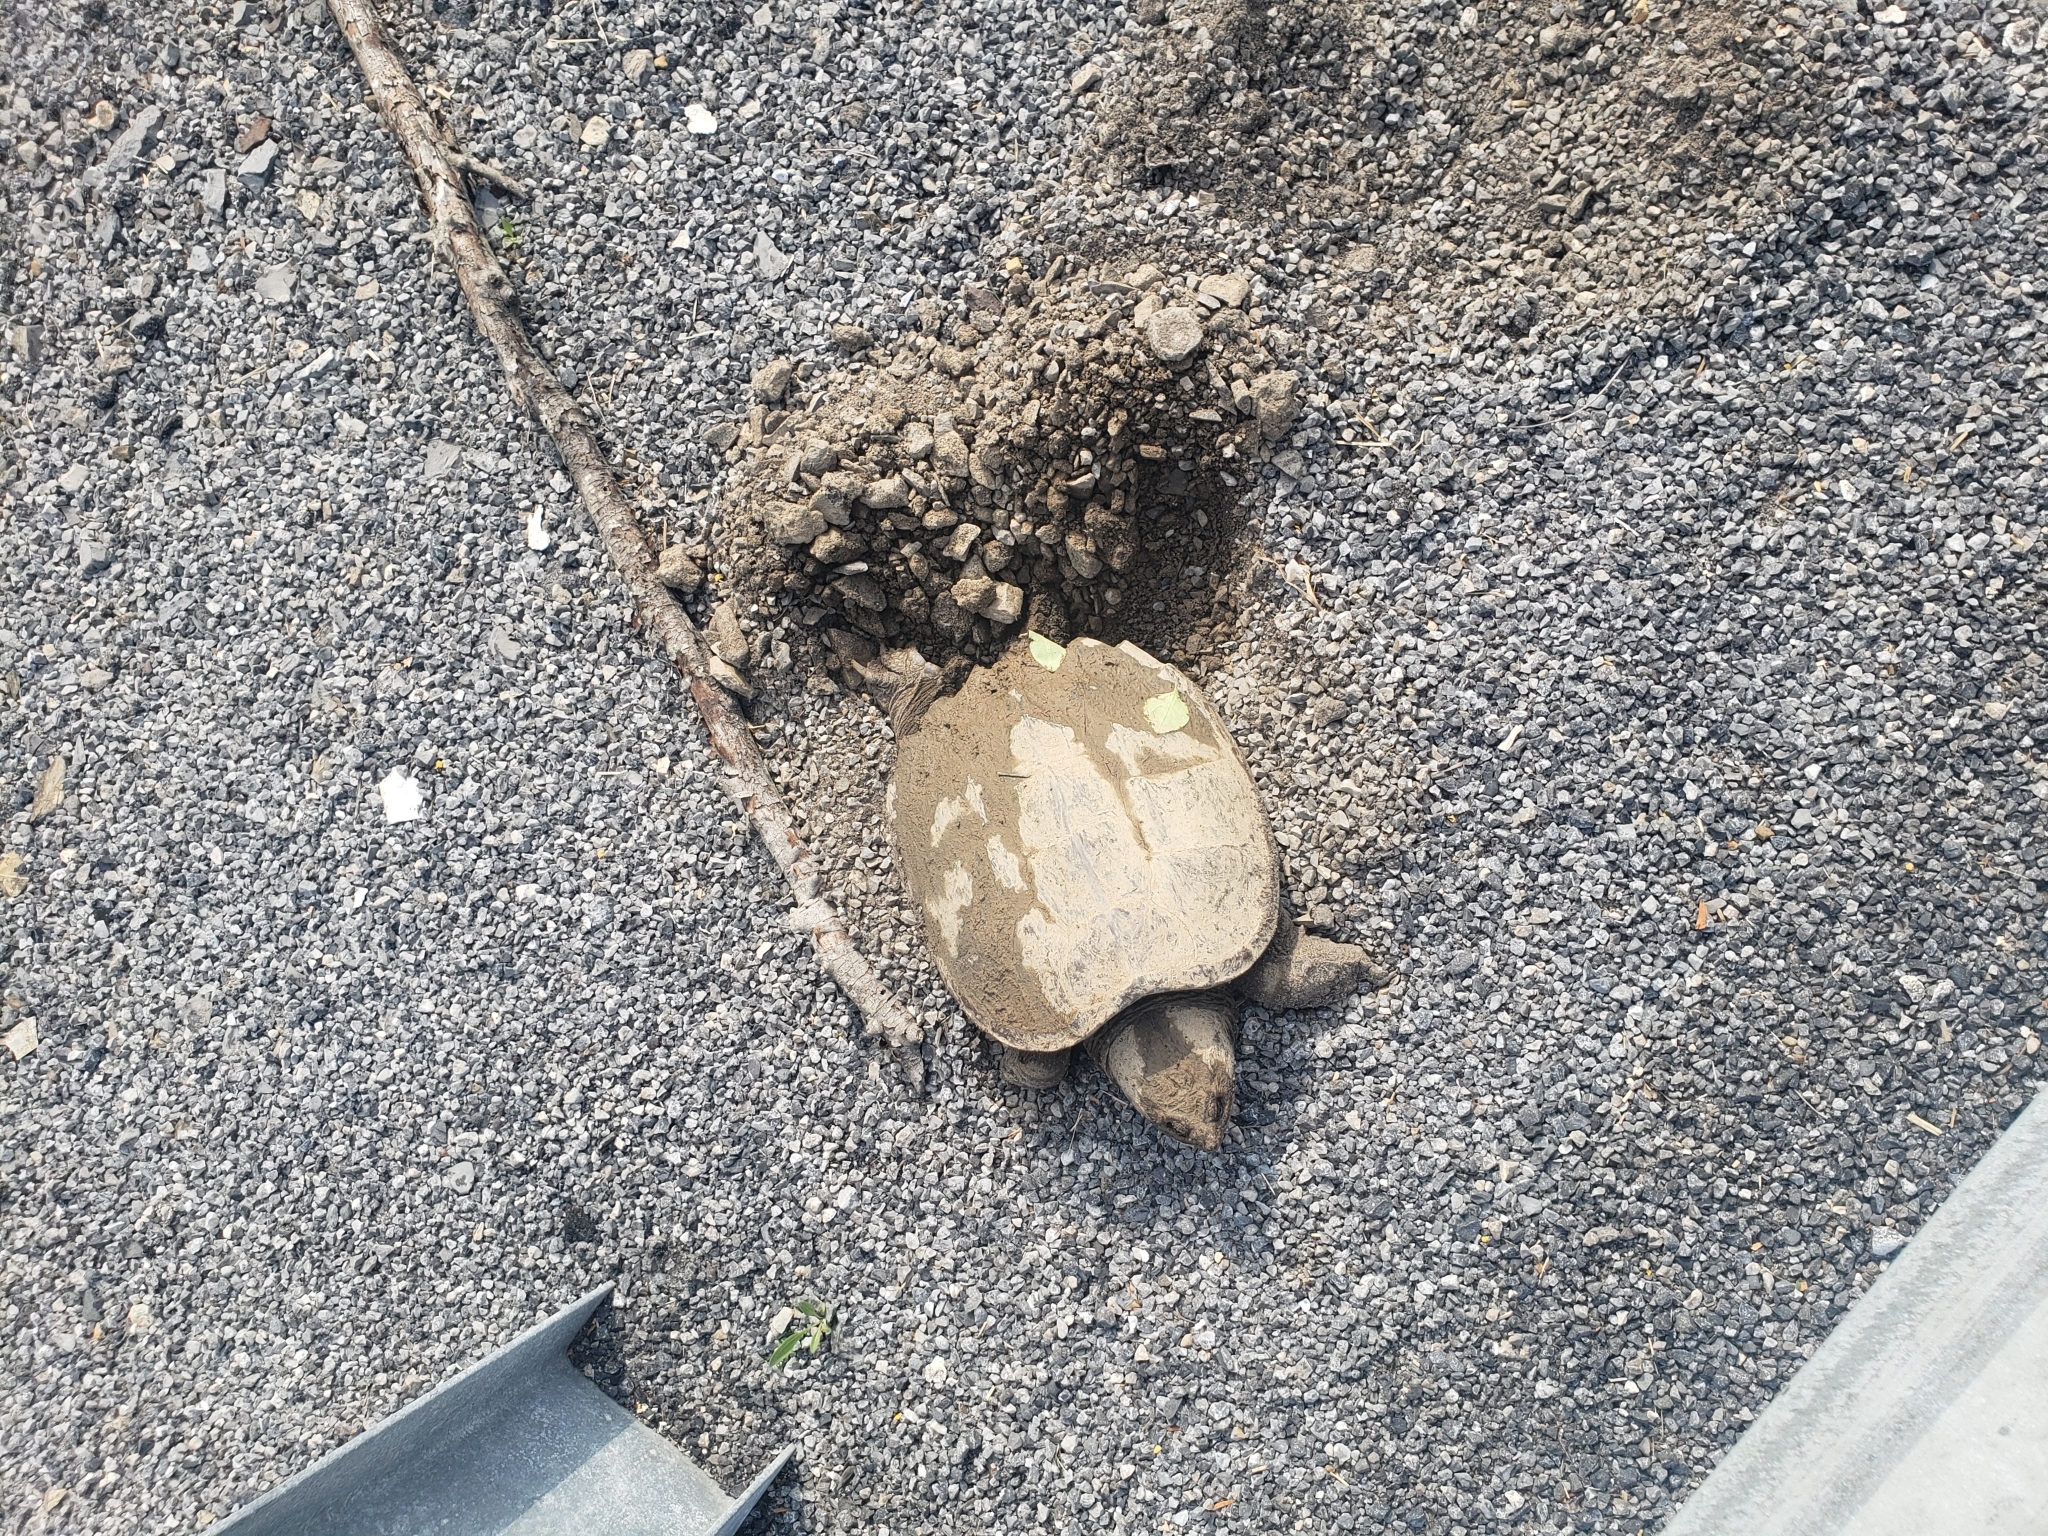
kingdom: Animalia
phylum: Chordata
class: Testudines
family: Chelydridae
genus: Chelydra
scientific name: Chelydra serpentina
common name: Common snapping turtle
